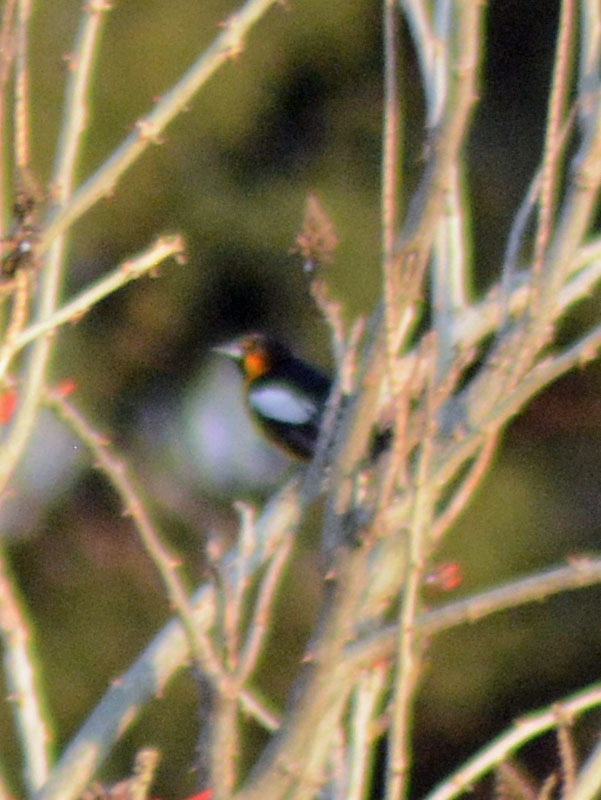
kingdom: Animalia
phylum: Chordata
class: Aves
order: Passeriformes
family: Icteridae
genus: Icterus
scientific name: Icterus abeillei
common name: Black-backed oriole
